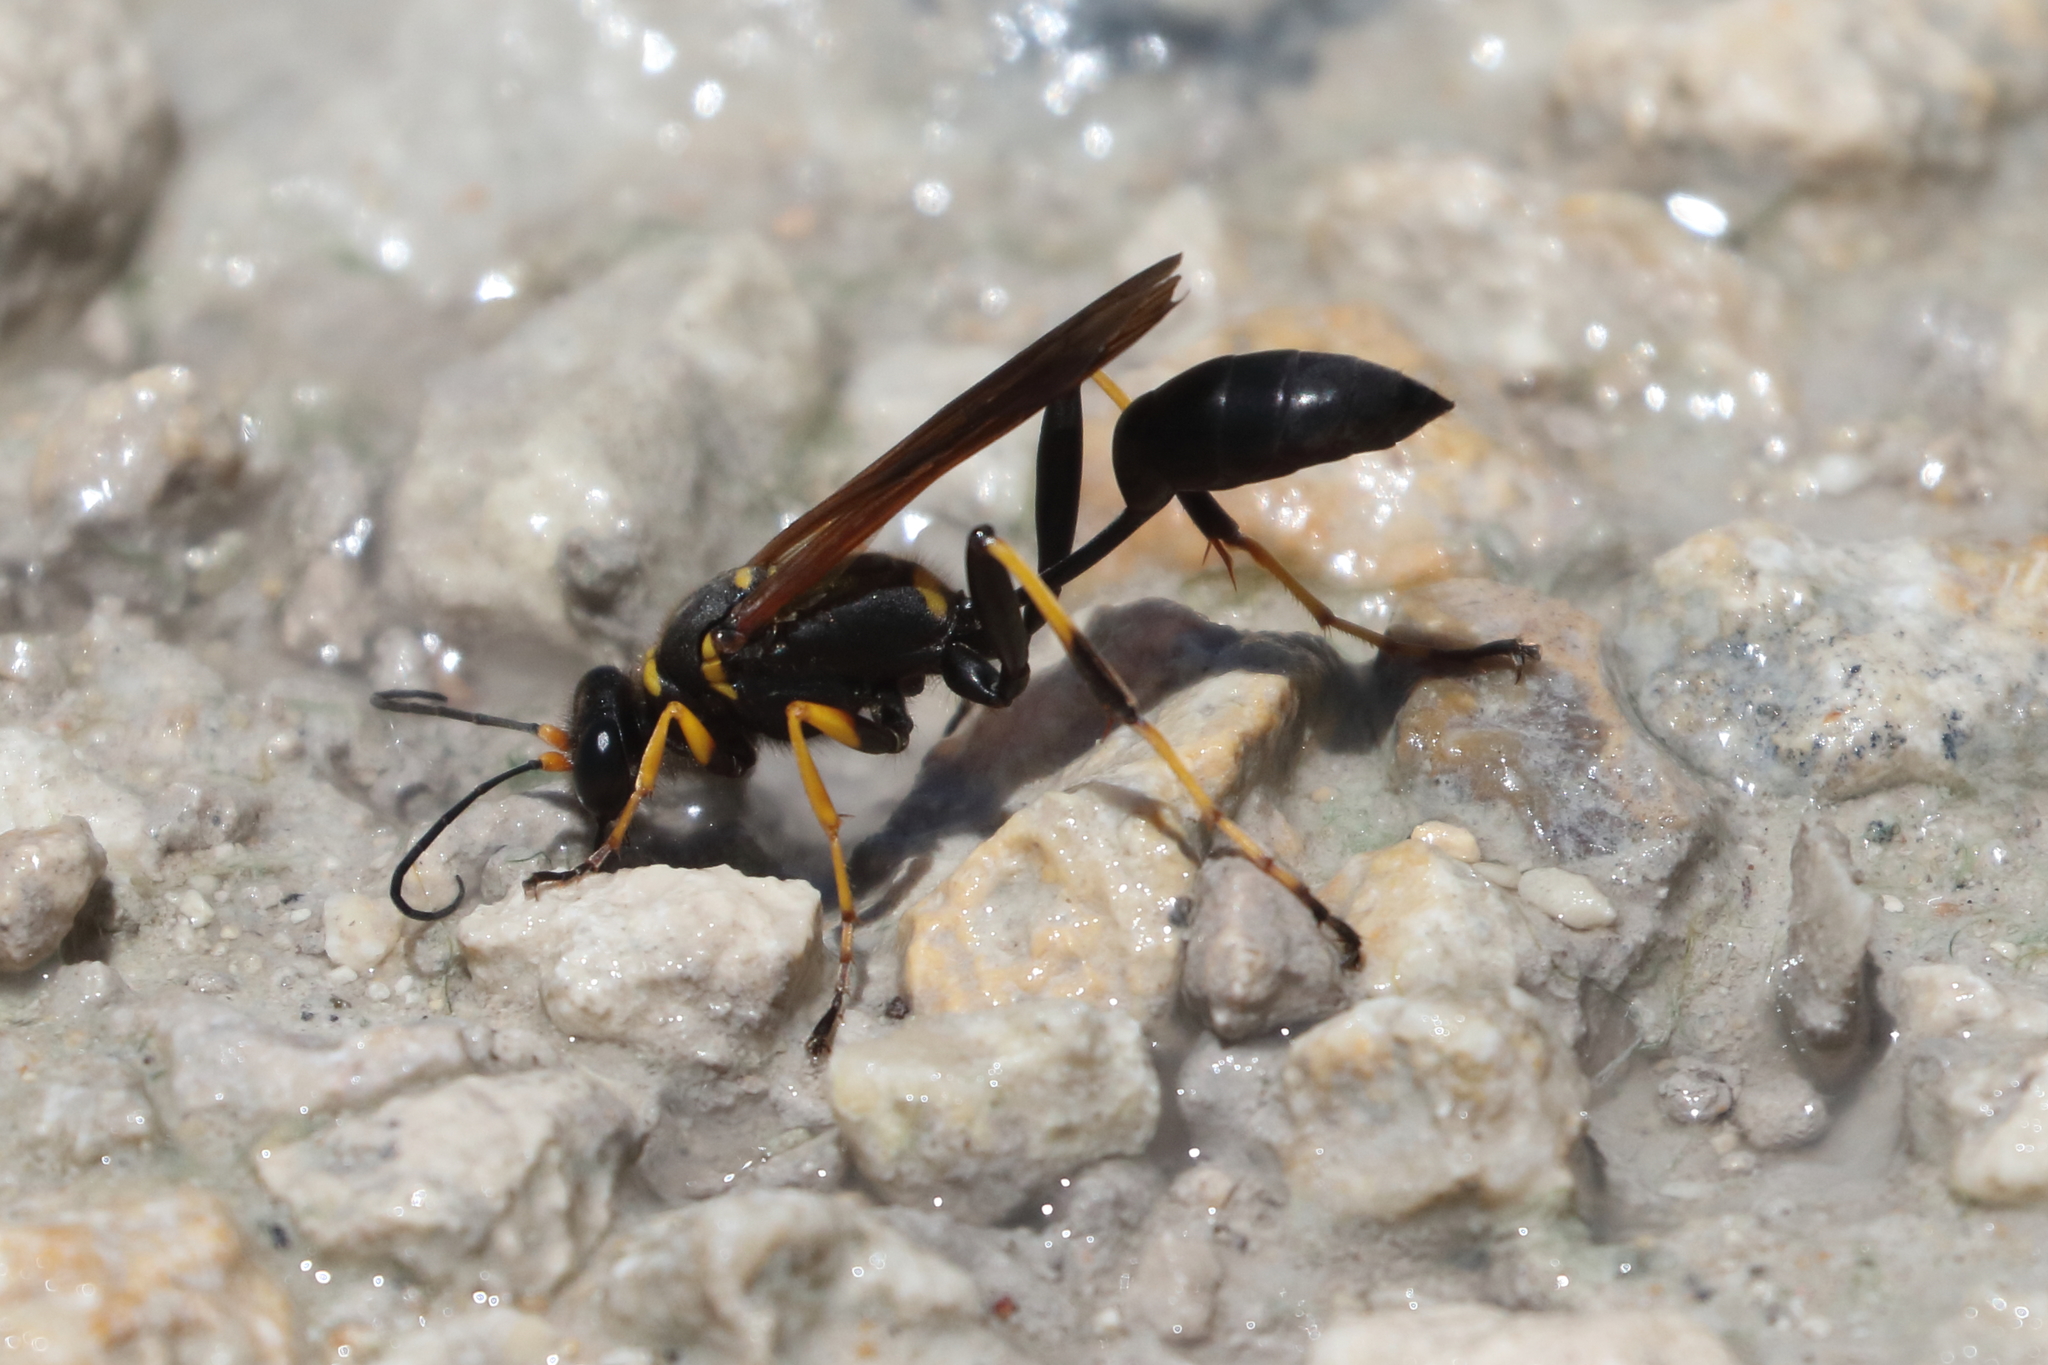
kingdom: Animalia
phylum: Arthropoda
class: Insecta
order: Hymenoptera
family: Sphecidae
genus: Sceliphron
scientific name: Sceliphron caementarium
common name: Mud dauber
